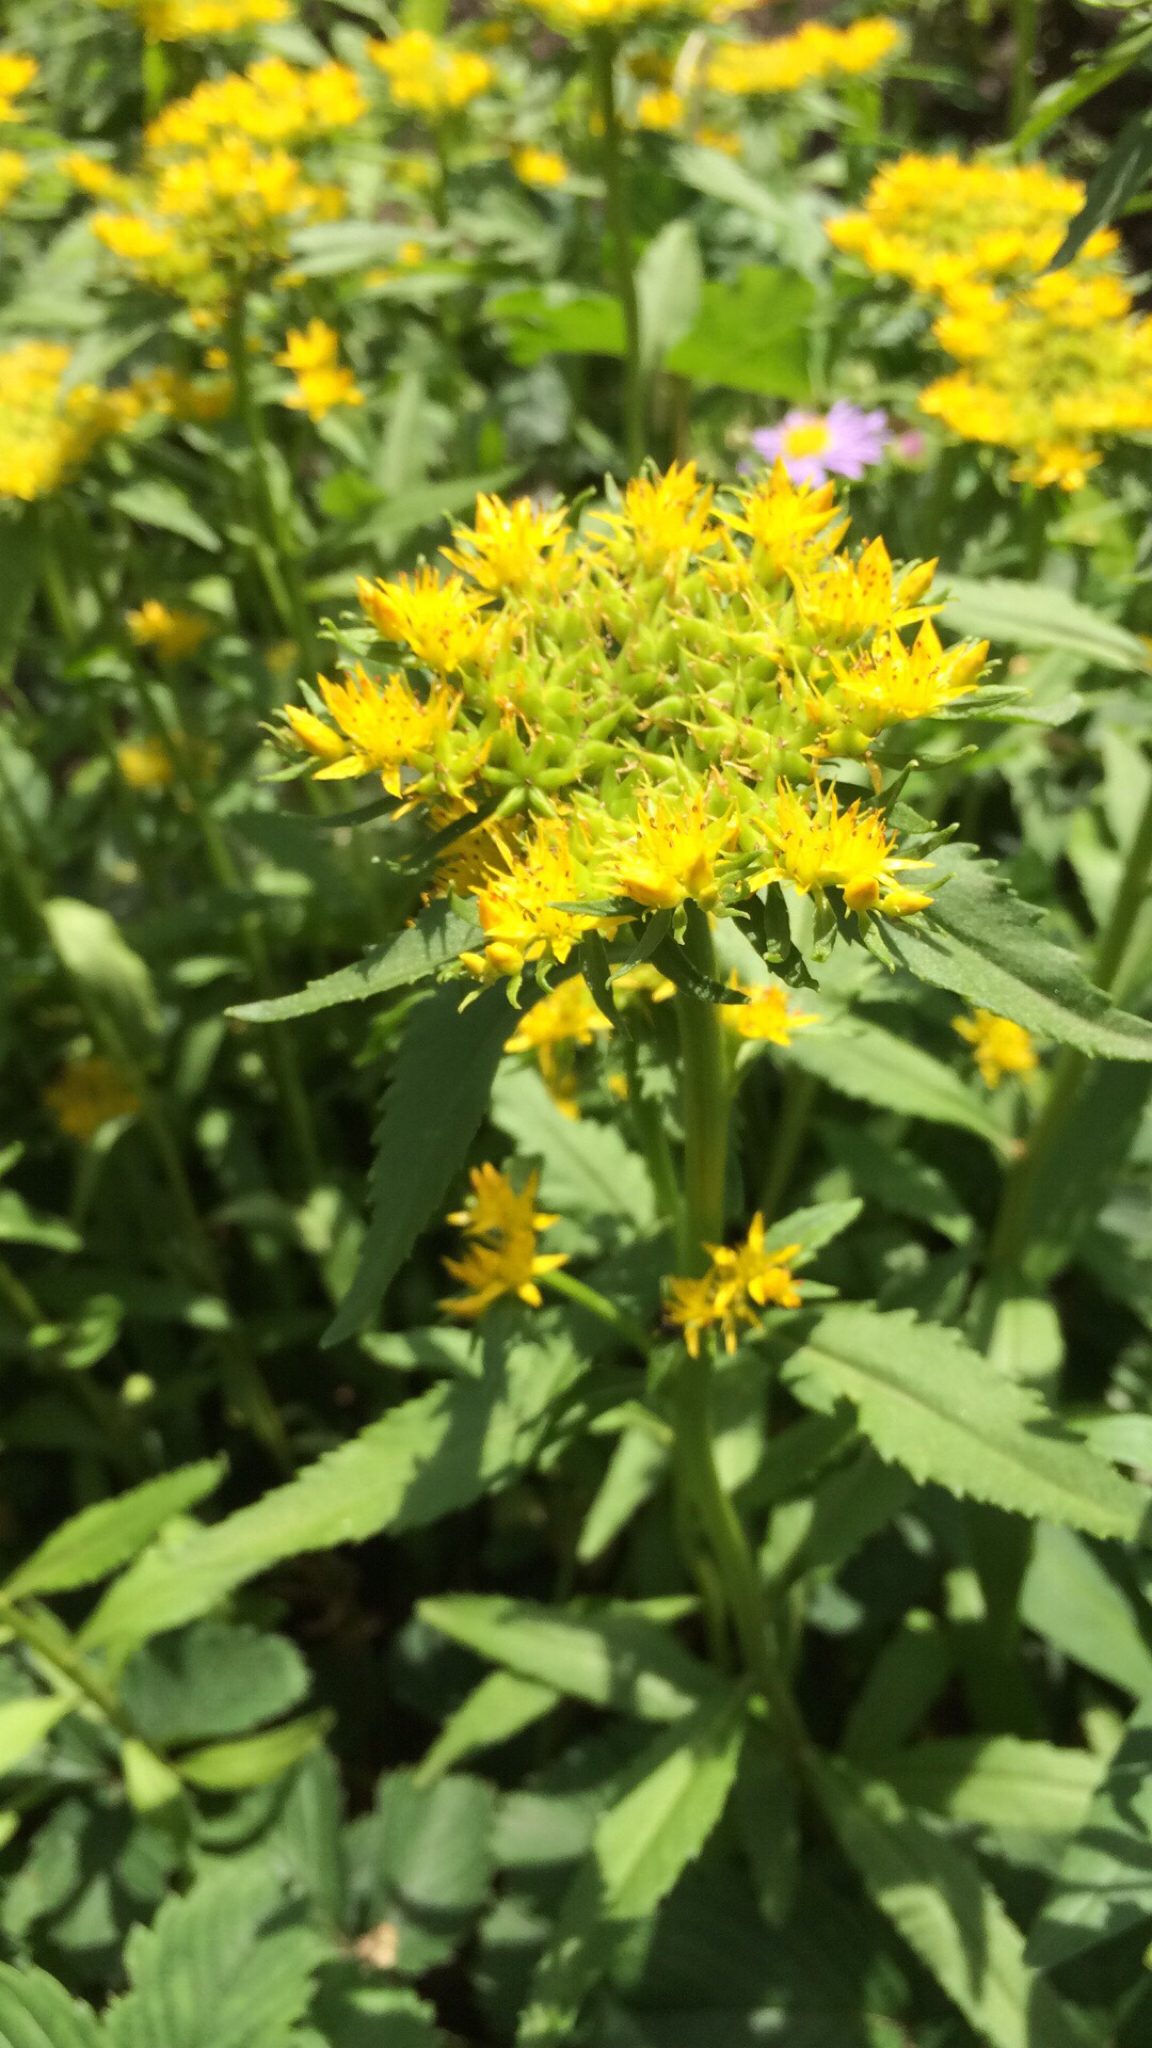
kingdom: Plantae
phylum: Tracheophyta
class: Magnoliopsida
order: Saxifragales
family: Crassulaceae
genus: Phedimus
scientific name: Phedimus aizoon
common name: Orpin aizoon
